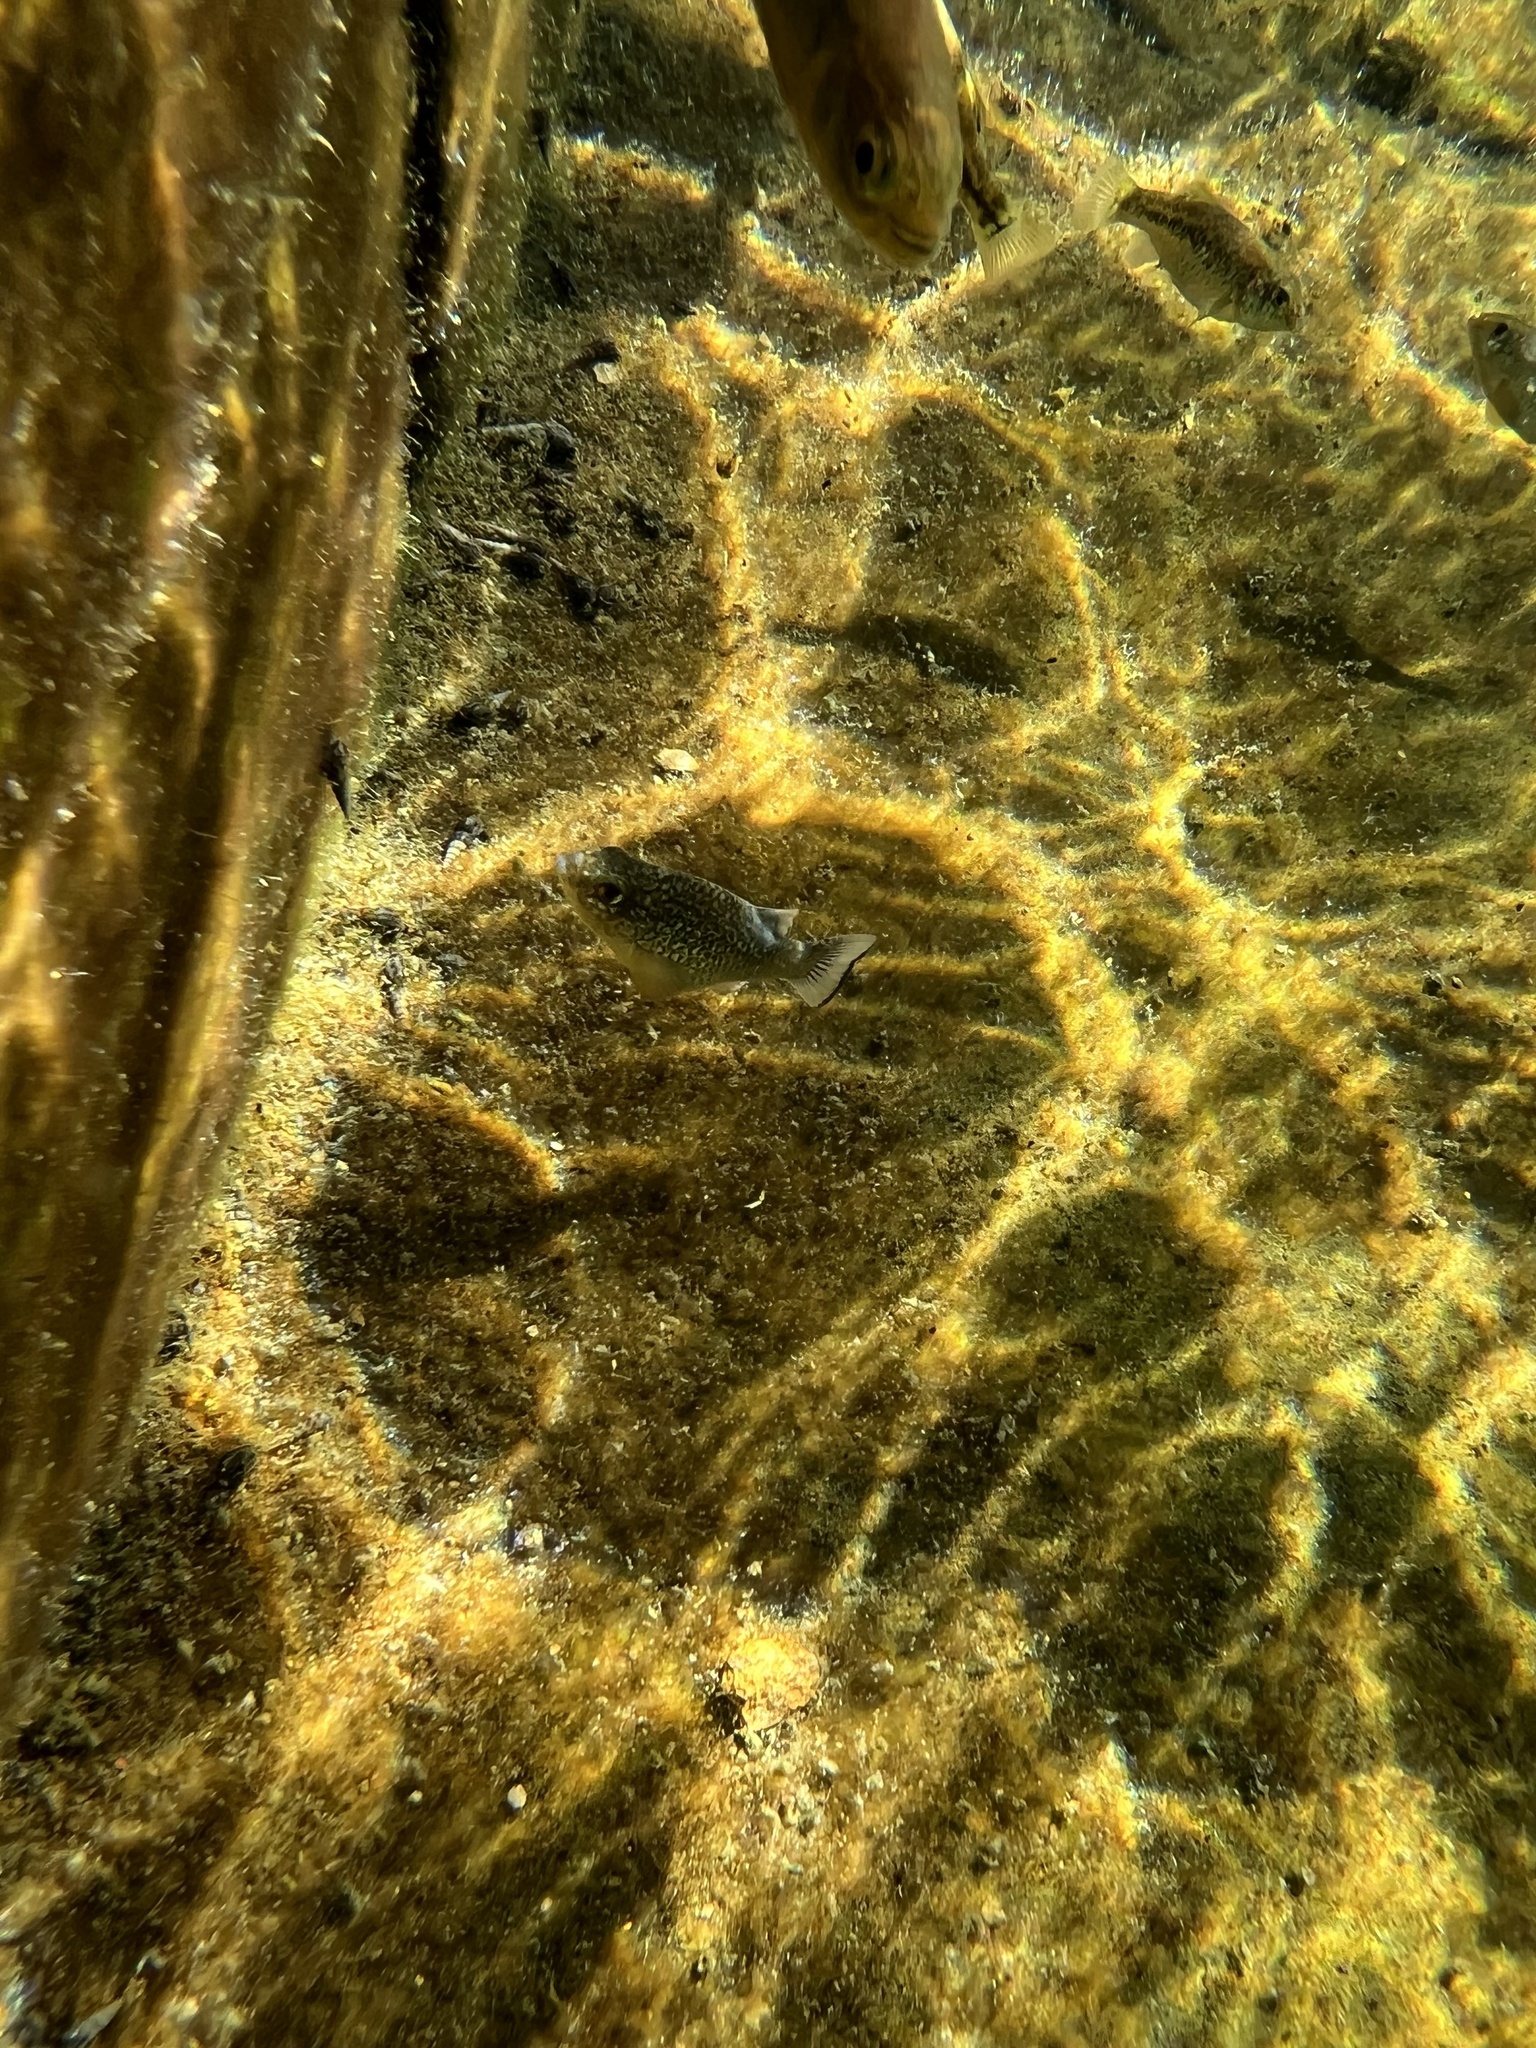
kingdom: Animalia
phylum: Chordata
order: Cyprinodontiformes
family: Cyprinodontidae
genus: Cyprinodon
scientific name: Cyprinodon elegans
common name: Comanche springs pupfish
